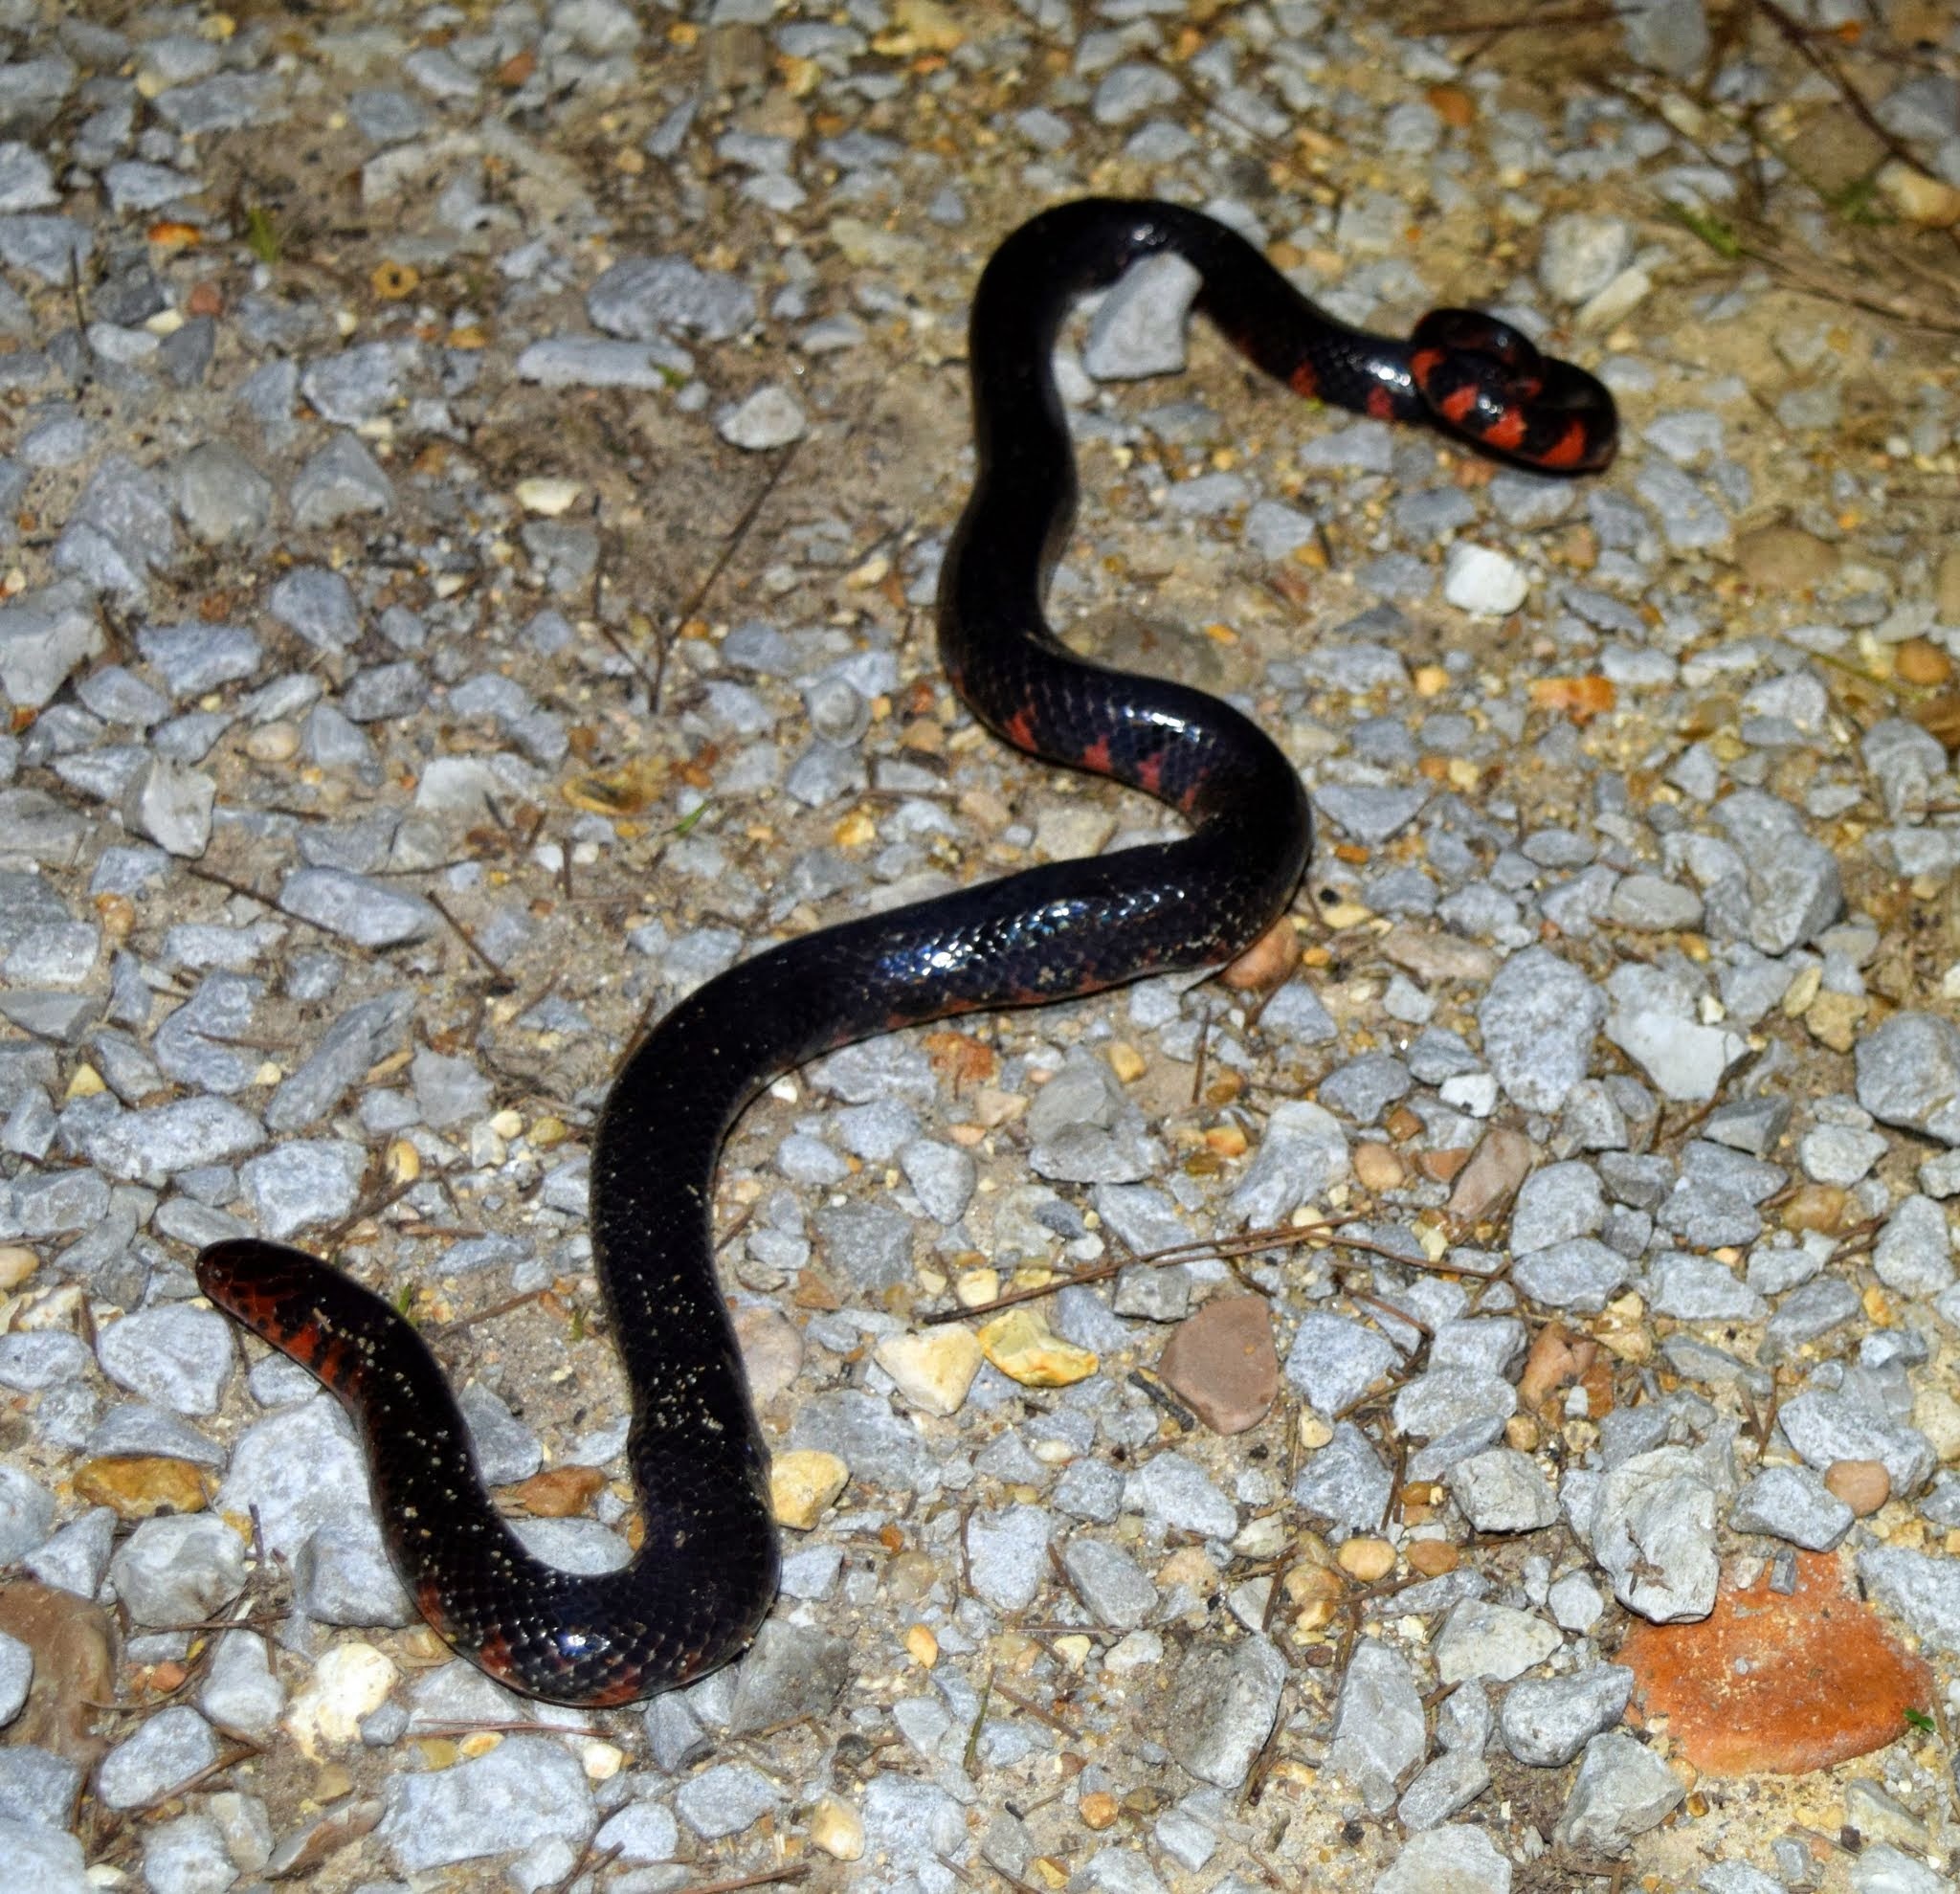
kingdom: Animalia
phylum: Chordata
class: Squamata
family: Colubridae
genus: Farancia
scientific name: Farancia abacura
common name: Mud snake
